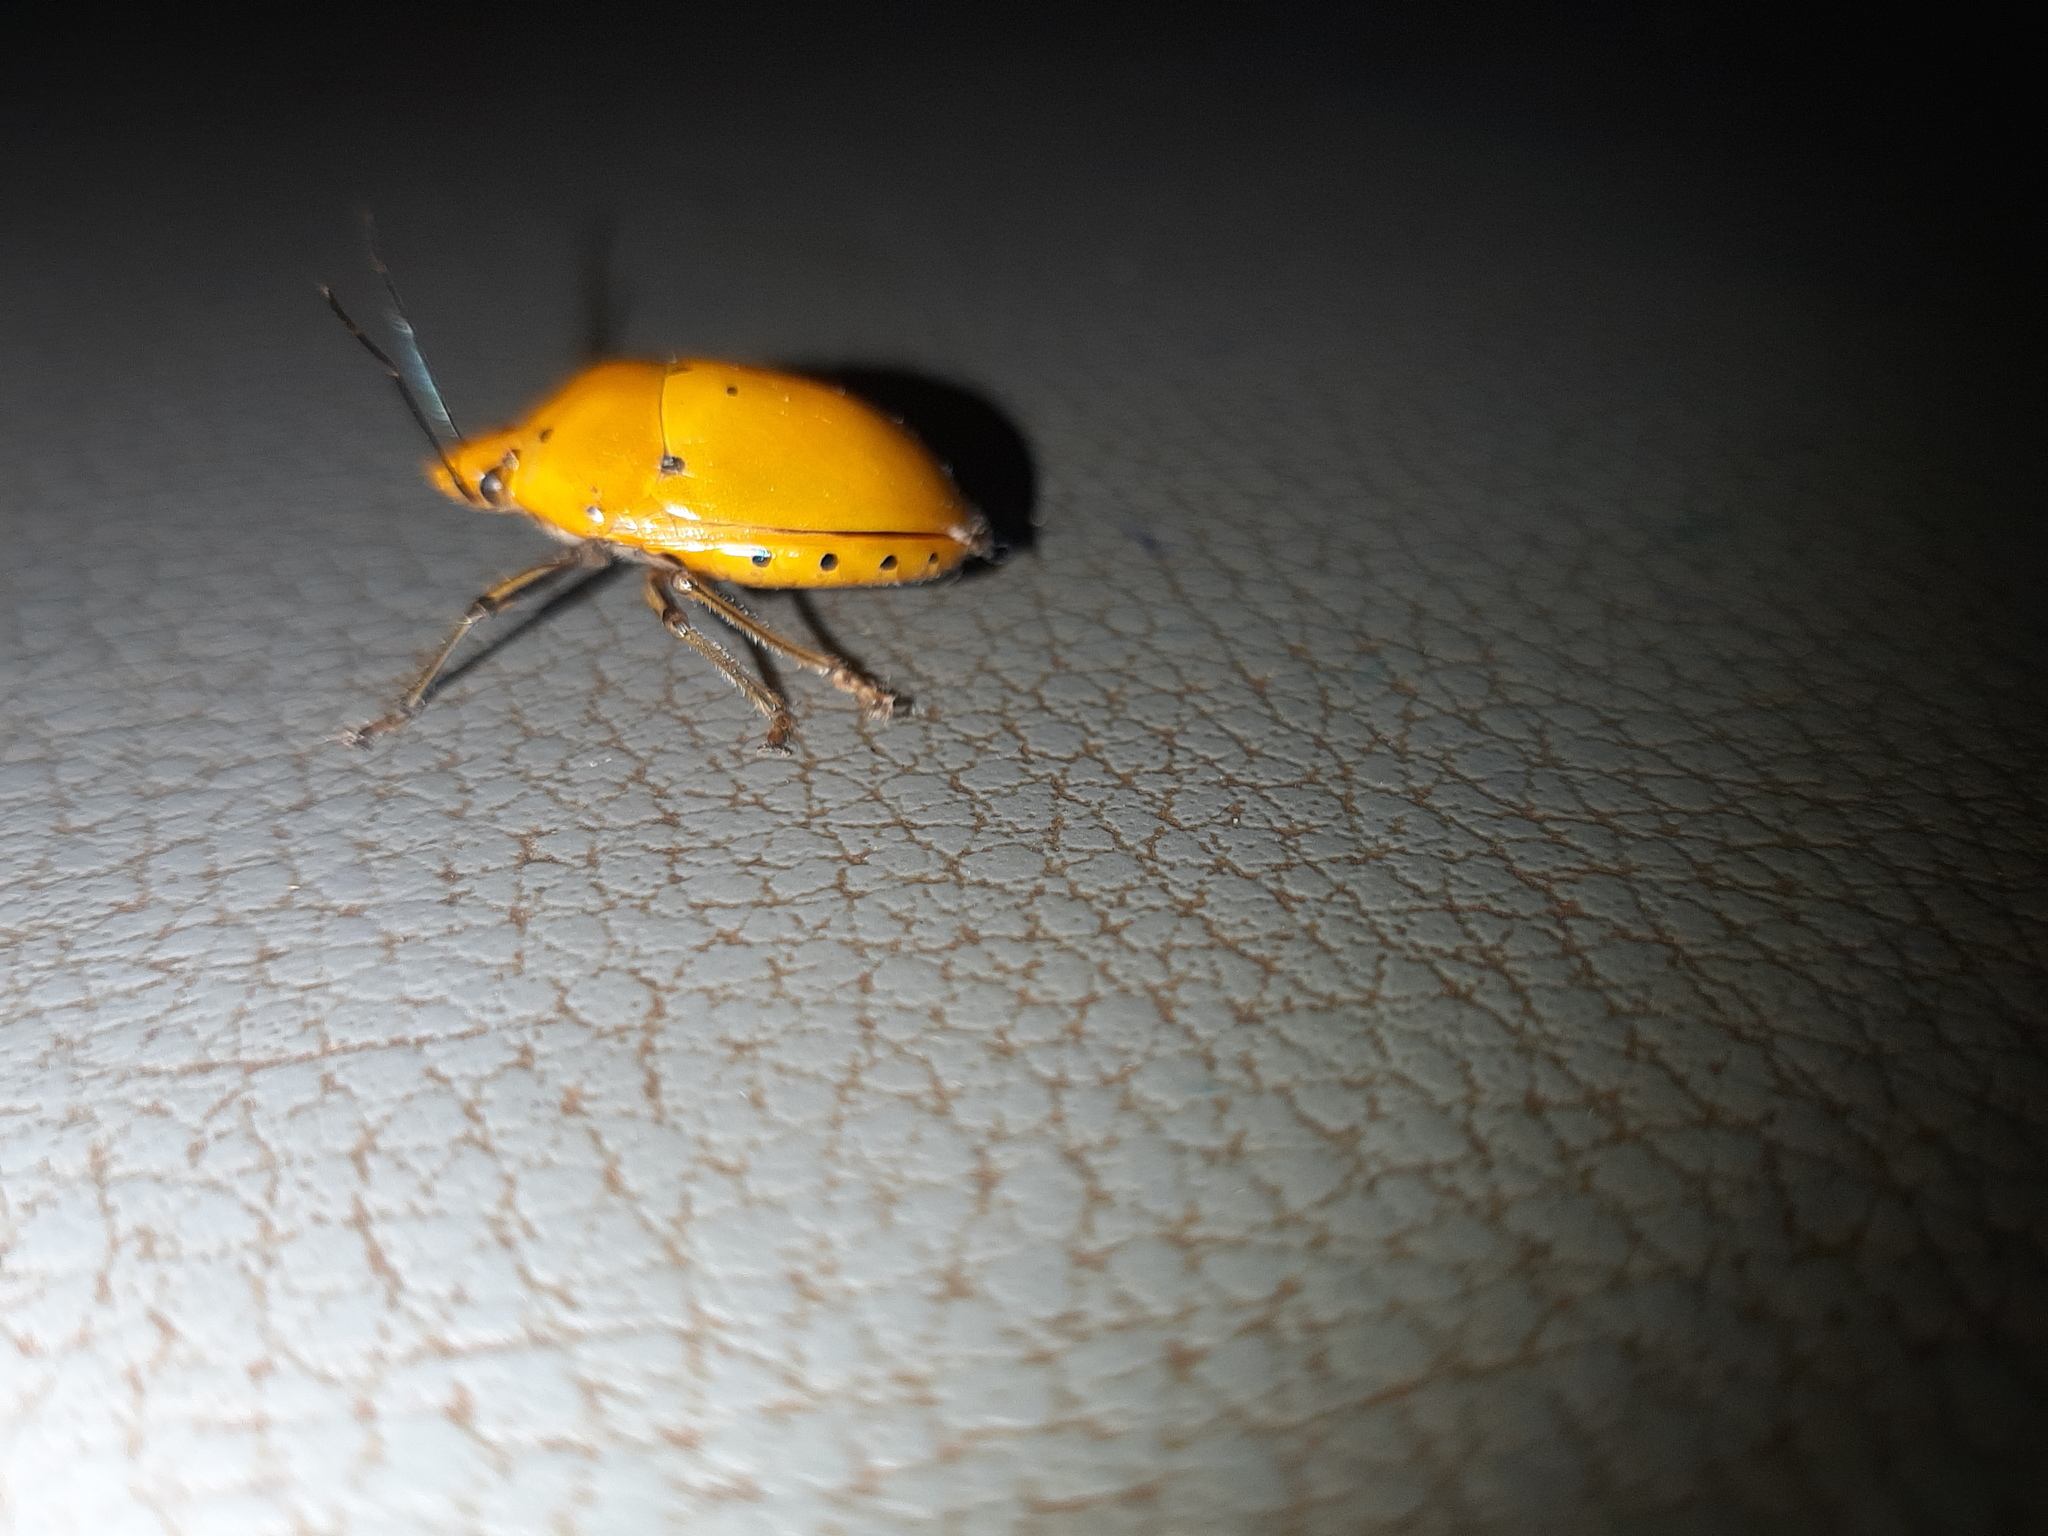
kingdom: Animalia
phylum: Arthropoda
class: Insecta
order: Hemiptera
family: Scutelleridae
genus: Augocoris
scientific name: Augocoris gomesii
